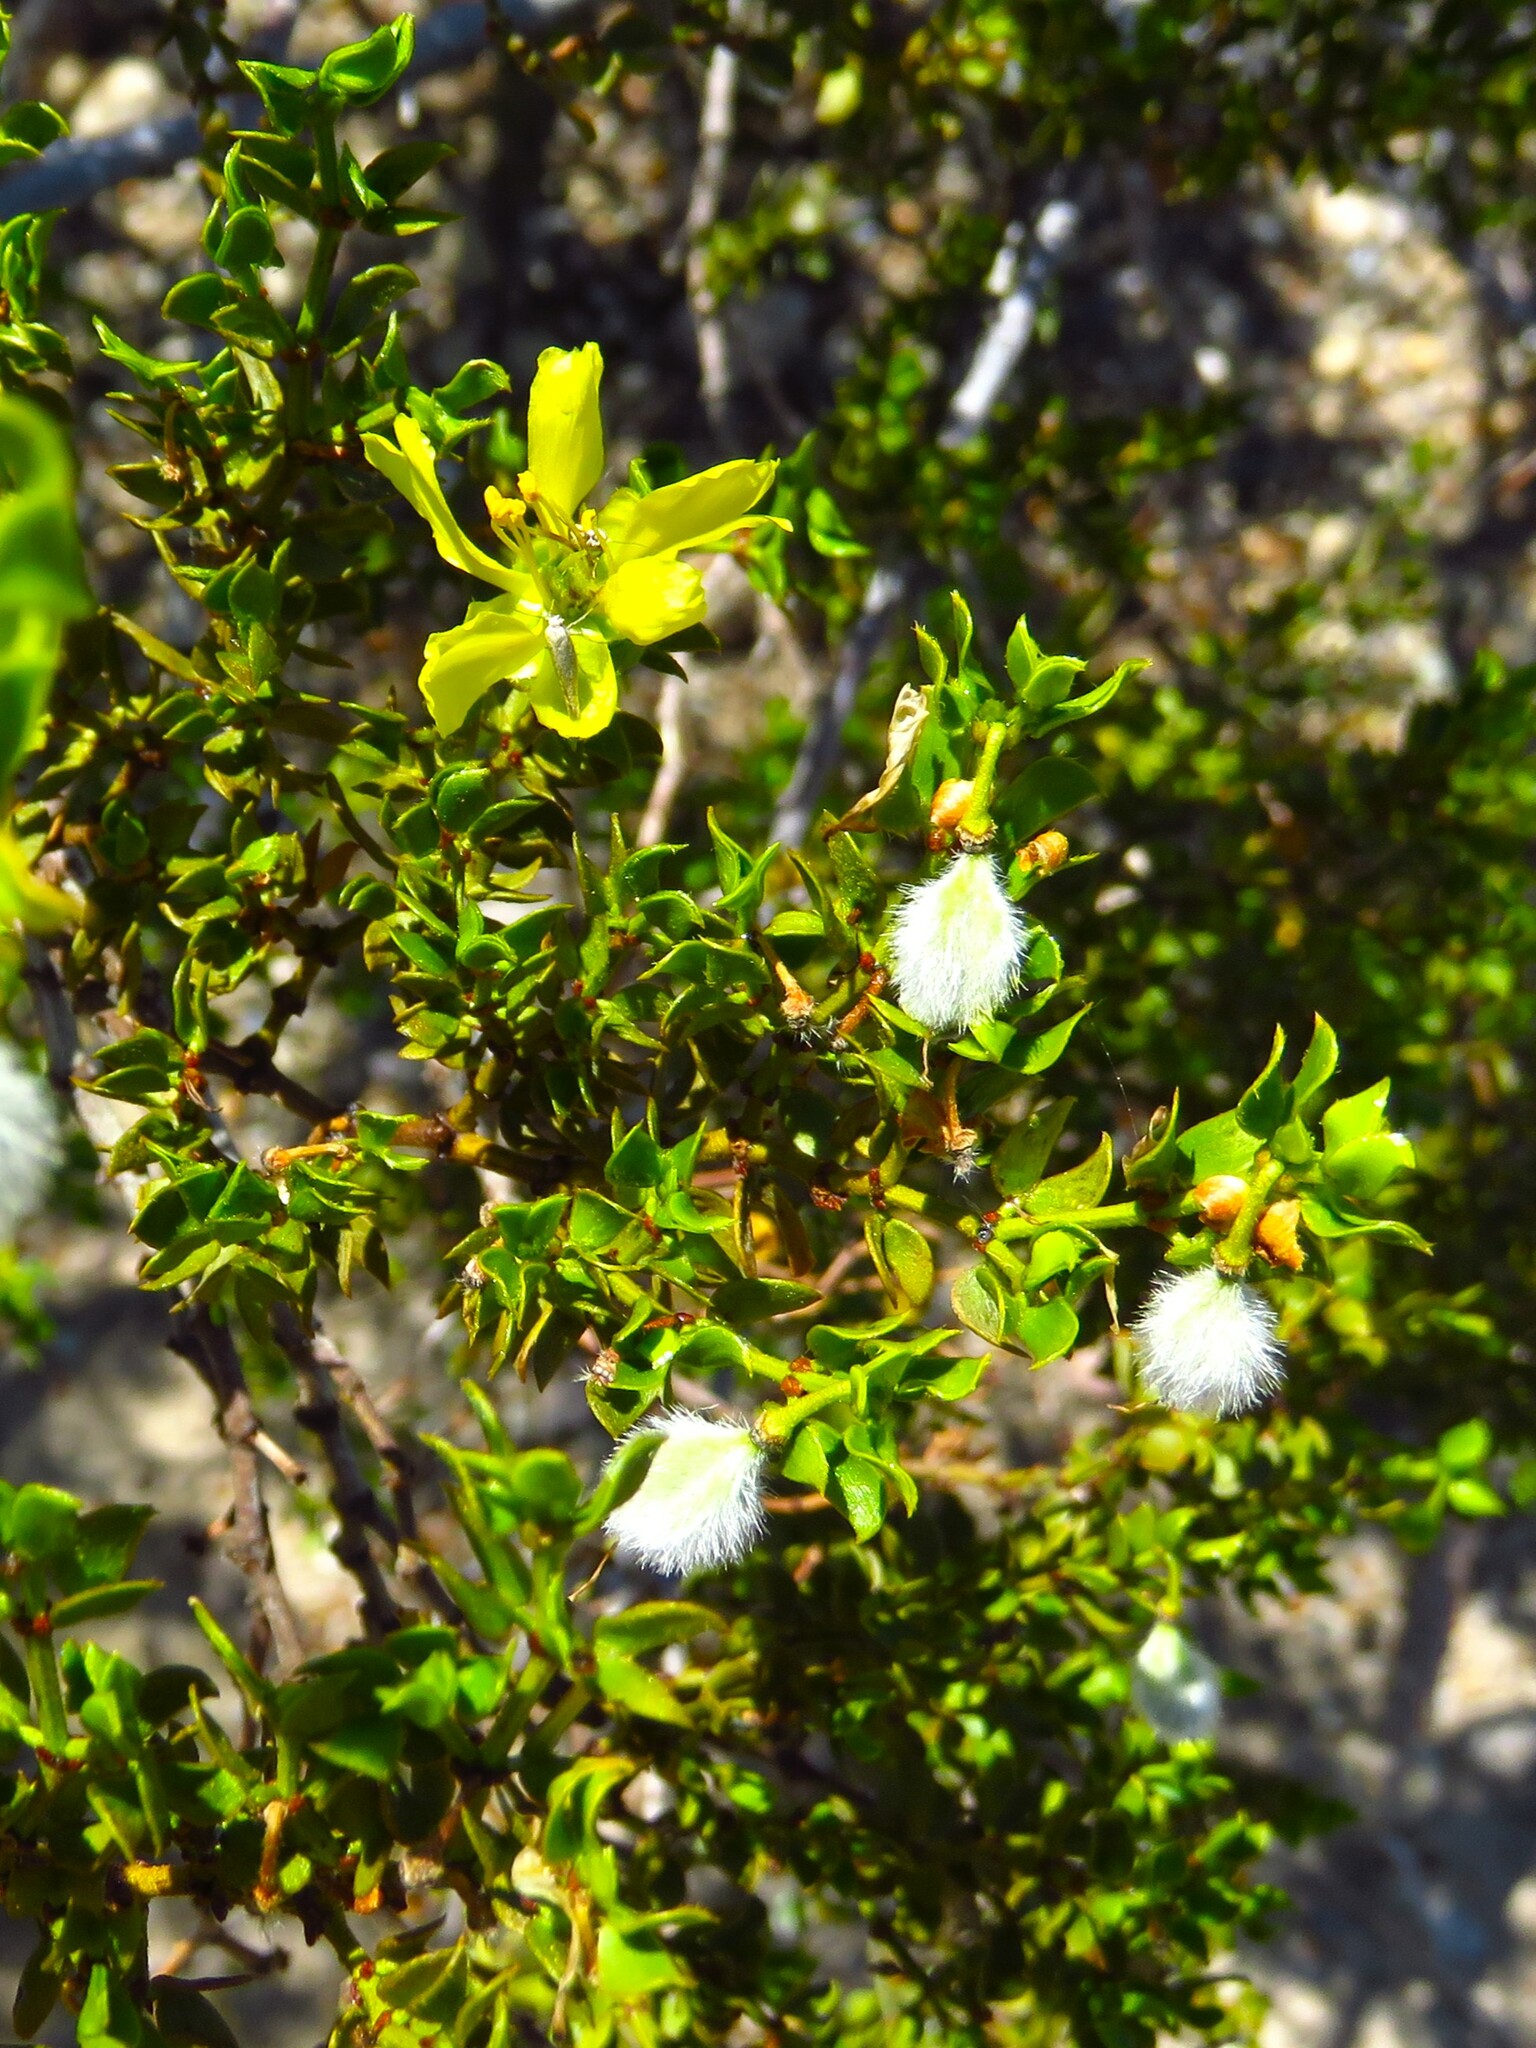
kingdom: Plantae
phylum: Tracheophyta
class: Magnoliopsida
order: Zygophyllales
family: Zygophyllaceae
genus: Larrea
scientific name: Larrea tridentata
